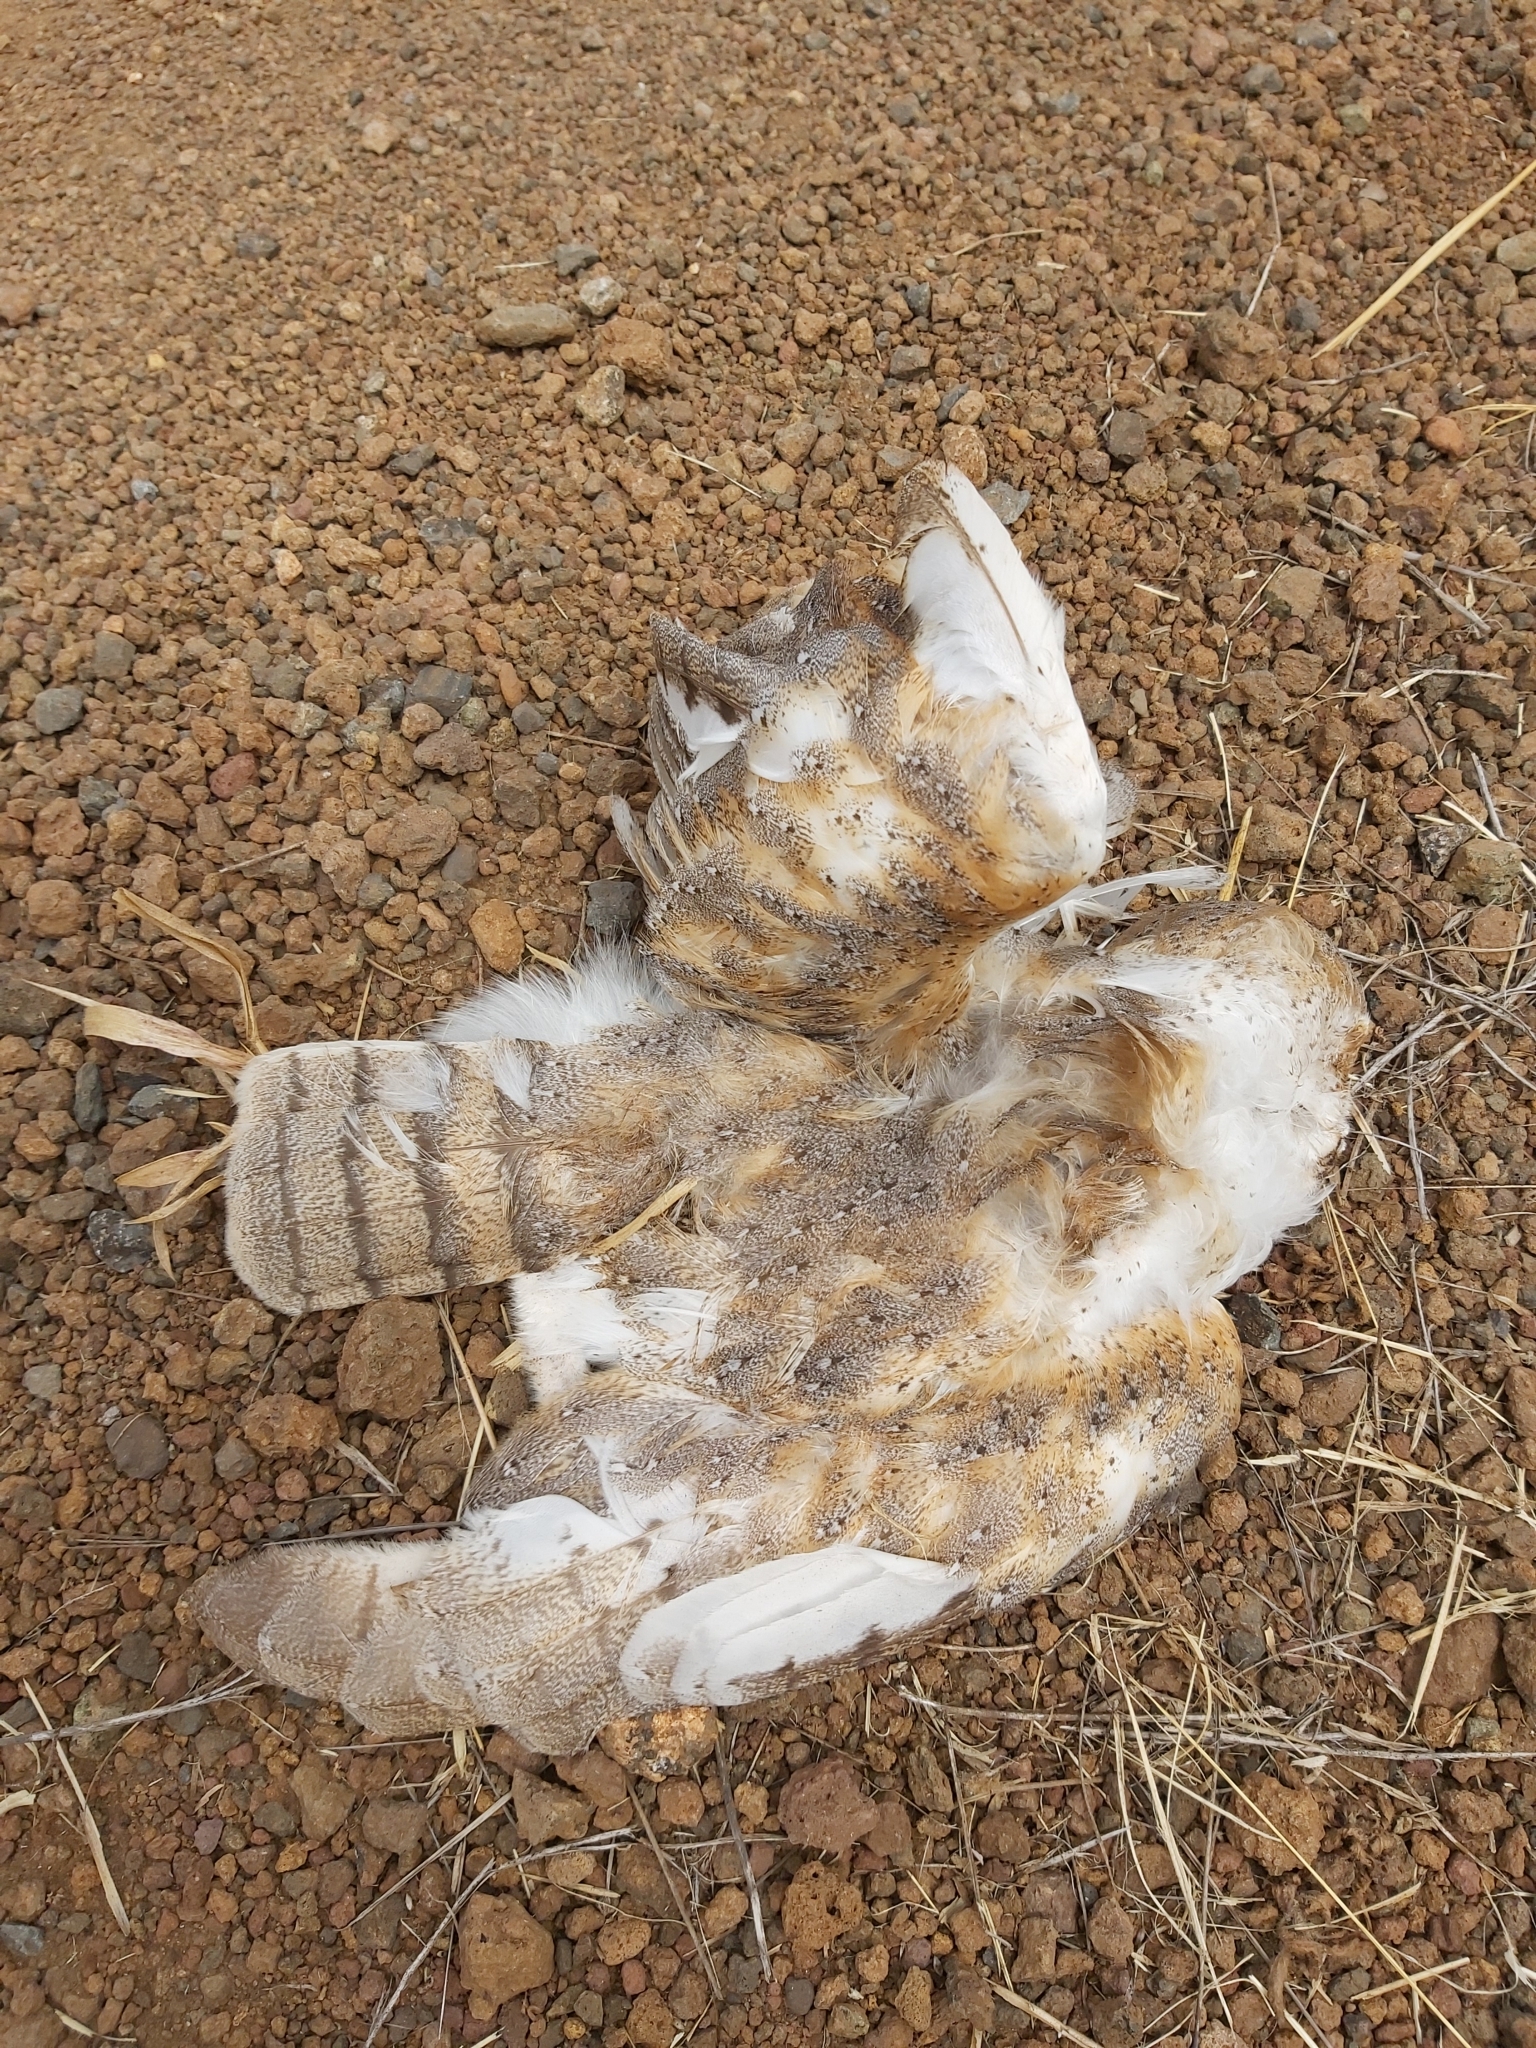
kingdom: Animalia
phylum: Chordata
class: Aves
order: Strigiformes
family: Tytonidae
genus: Tyto
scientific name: Tyto javanica
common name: Eastern barn owl
